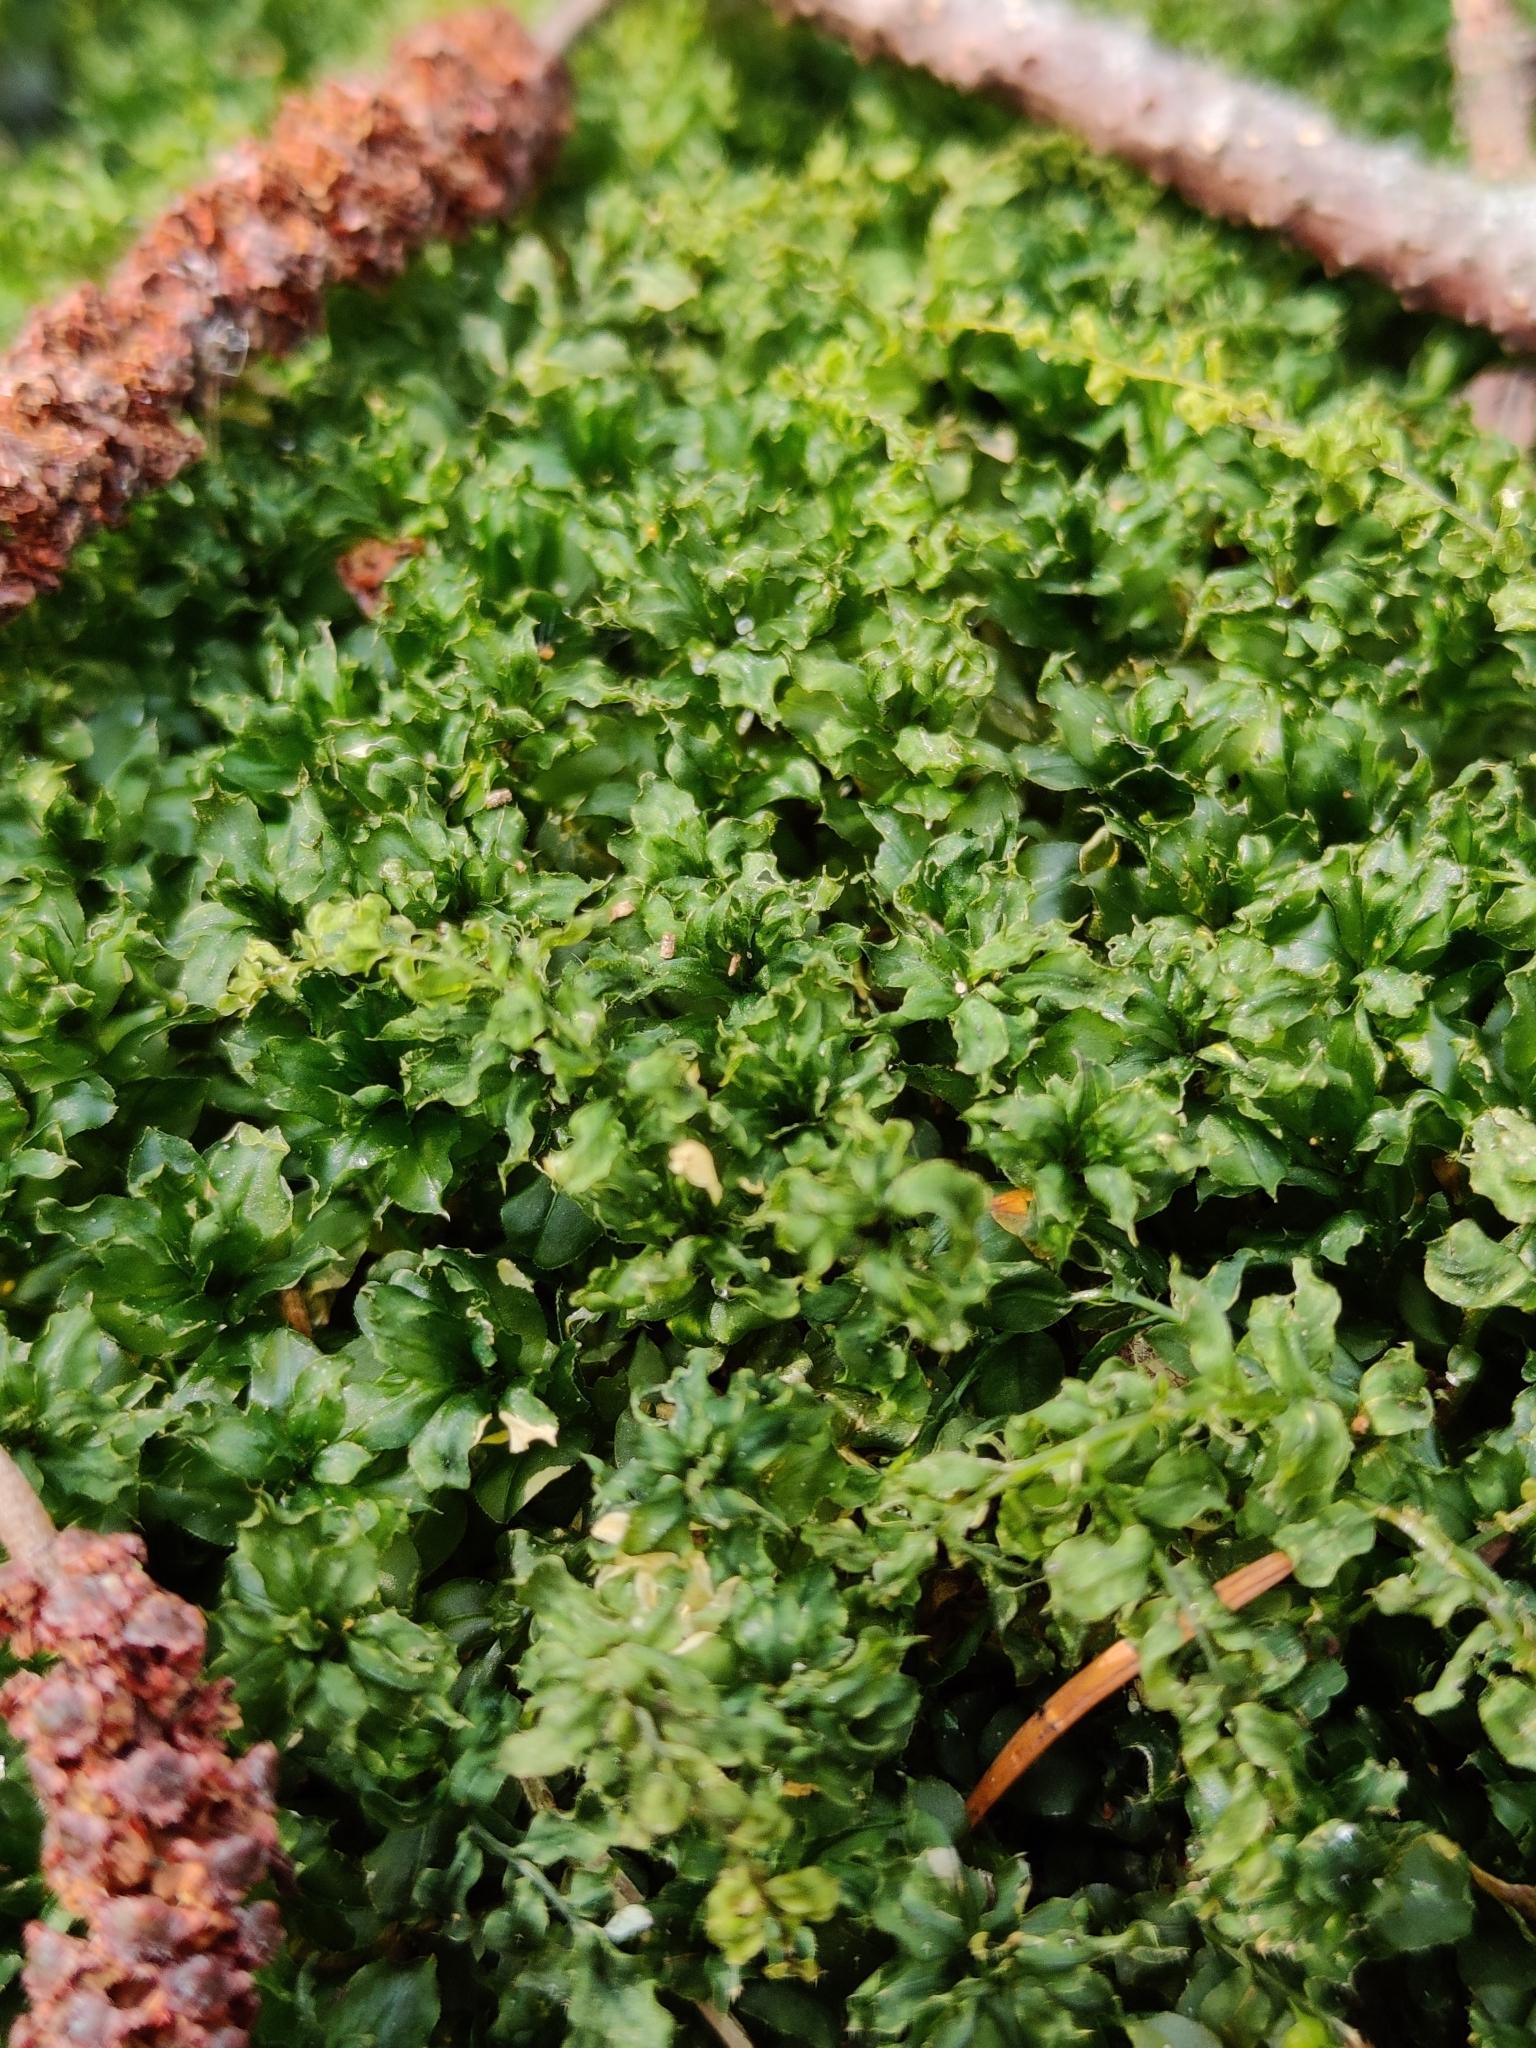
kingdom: Plantae
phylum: Bryophyta
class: Bryopsida
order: Bryales
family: Mniaceae
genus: Plagiomnium
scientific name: Plagiomnium affine
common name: Many-fruited thyme-moss
